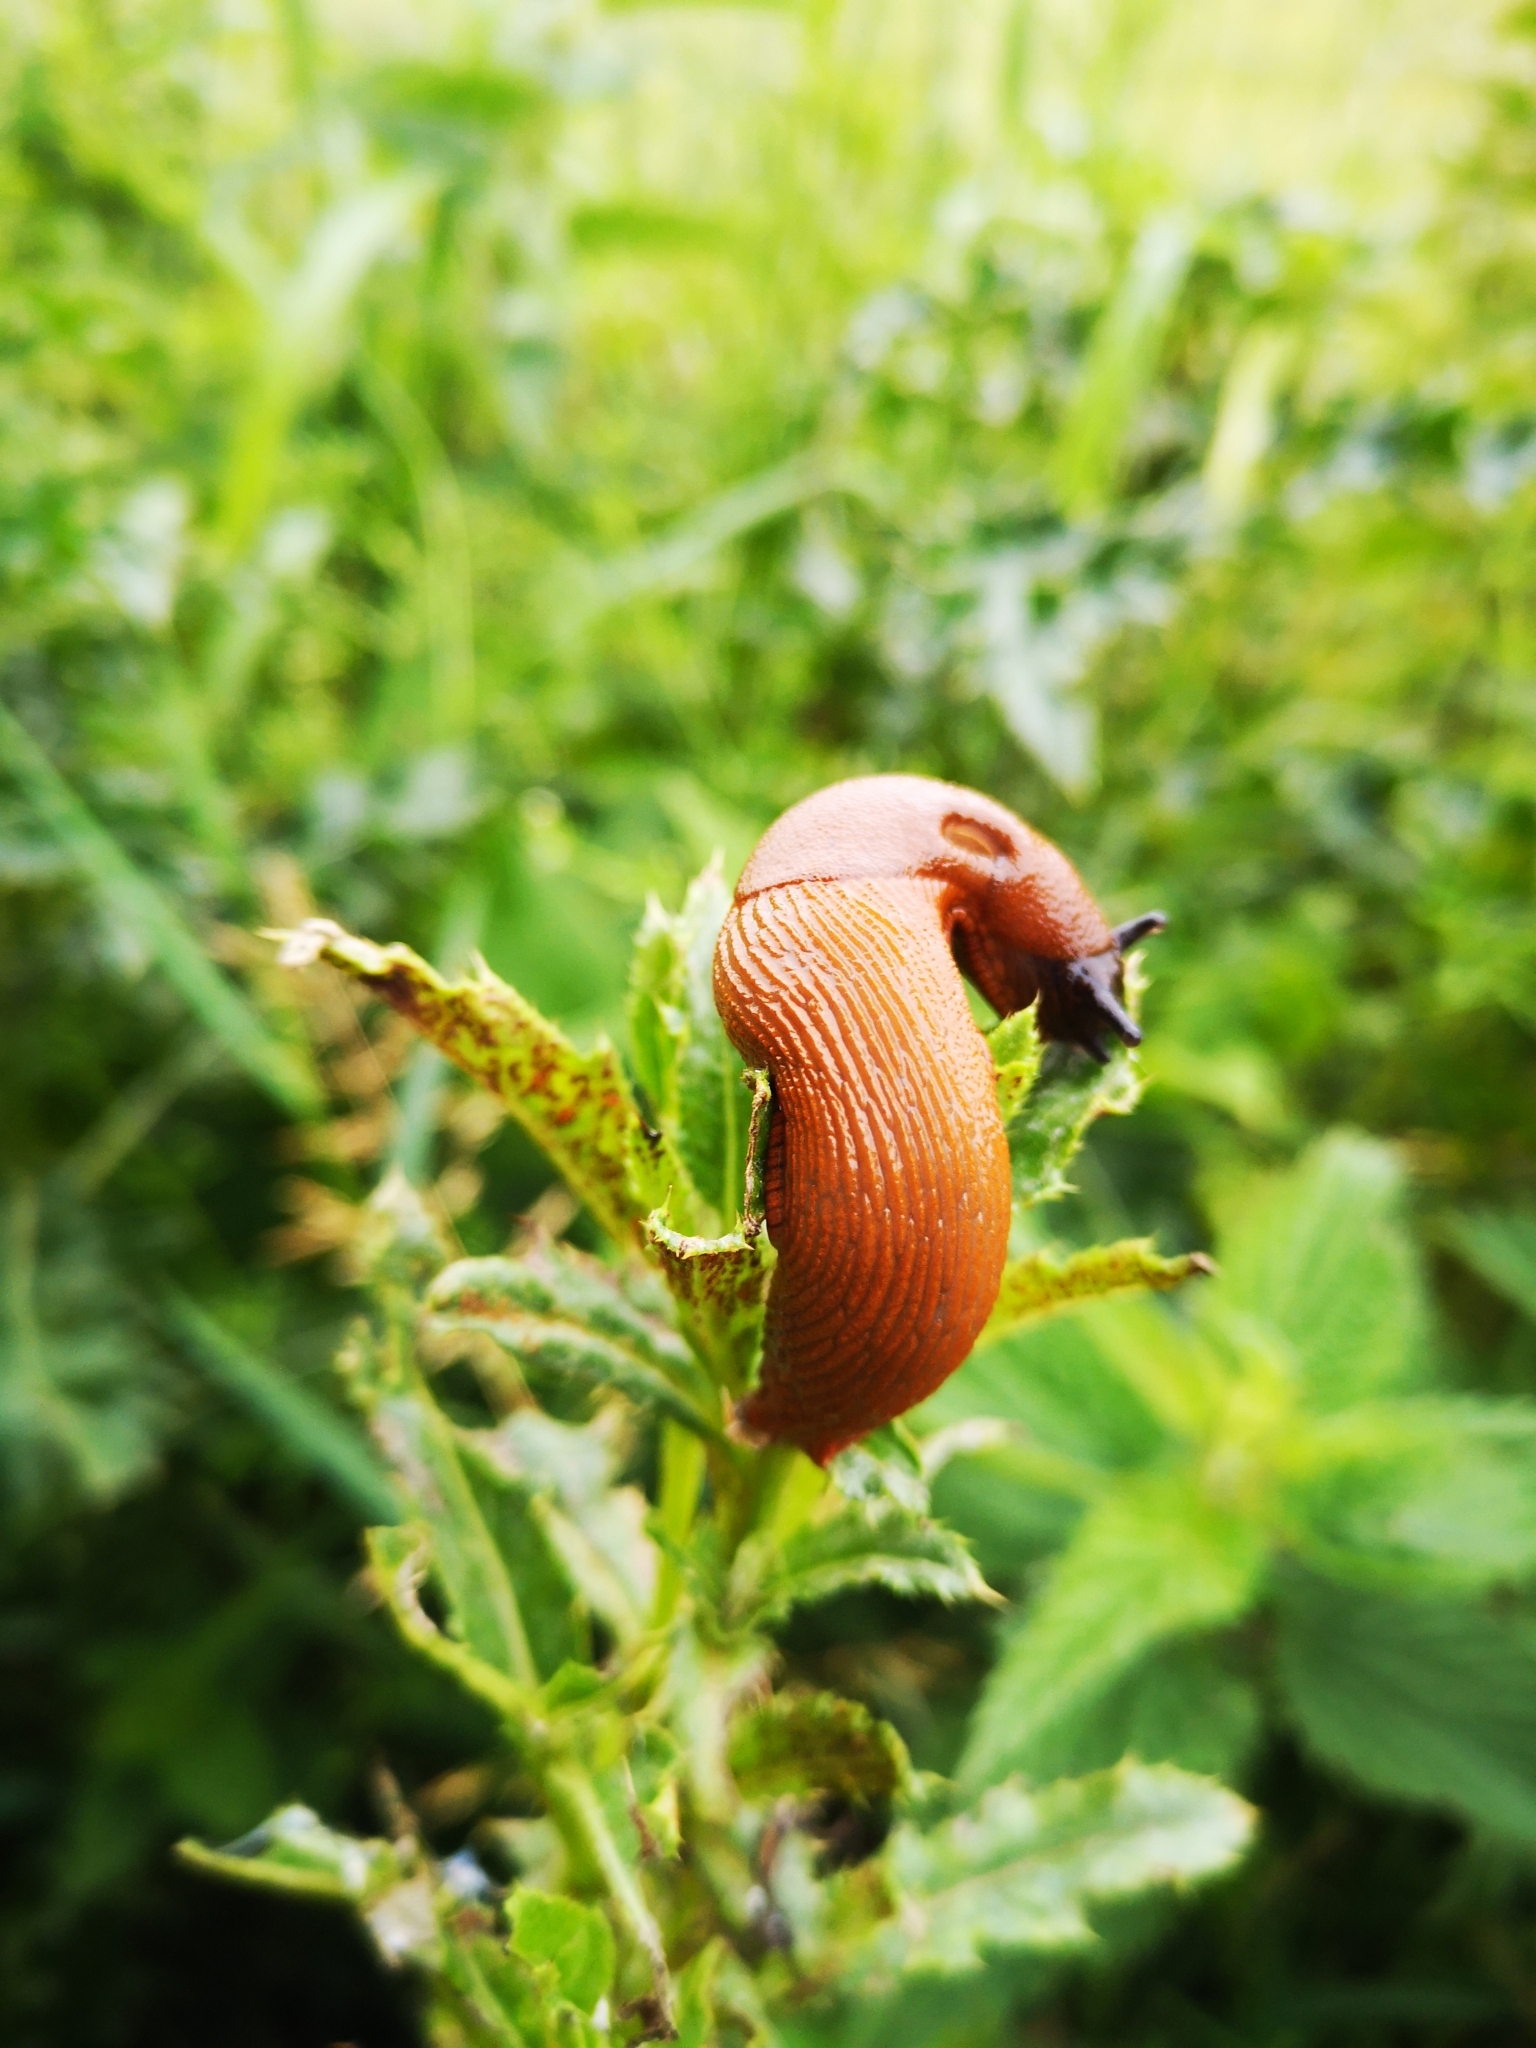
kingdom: Animalia
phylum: Mollusca
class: Gastropoda
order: Stylommatophora
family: Arionidae
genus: Arion
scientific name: Arion rufus
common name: Chocolate arion
